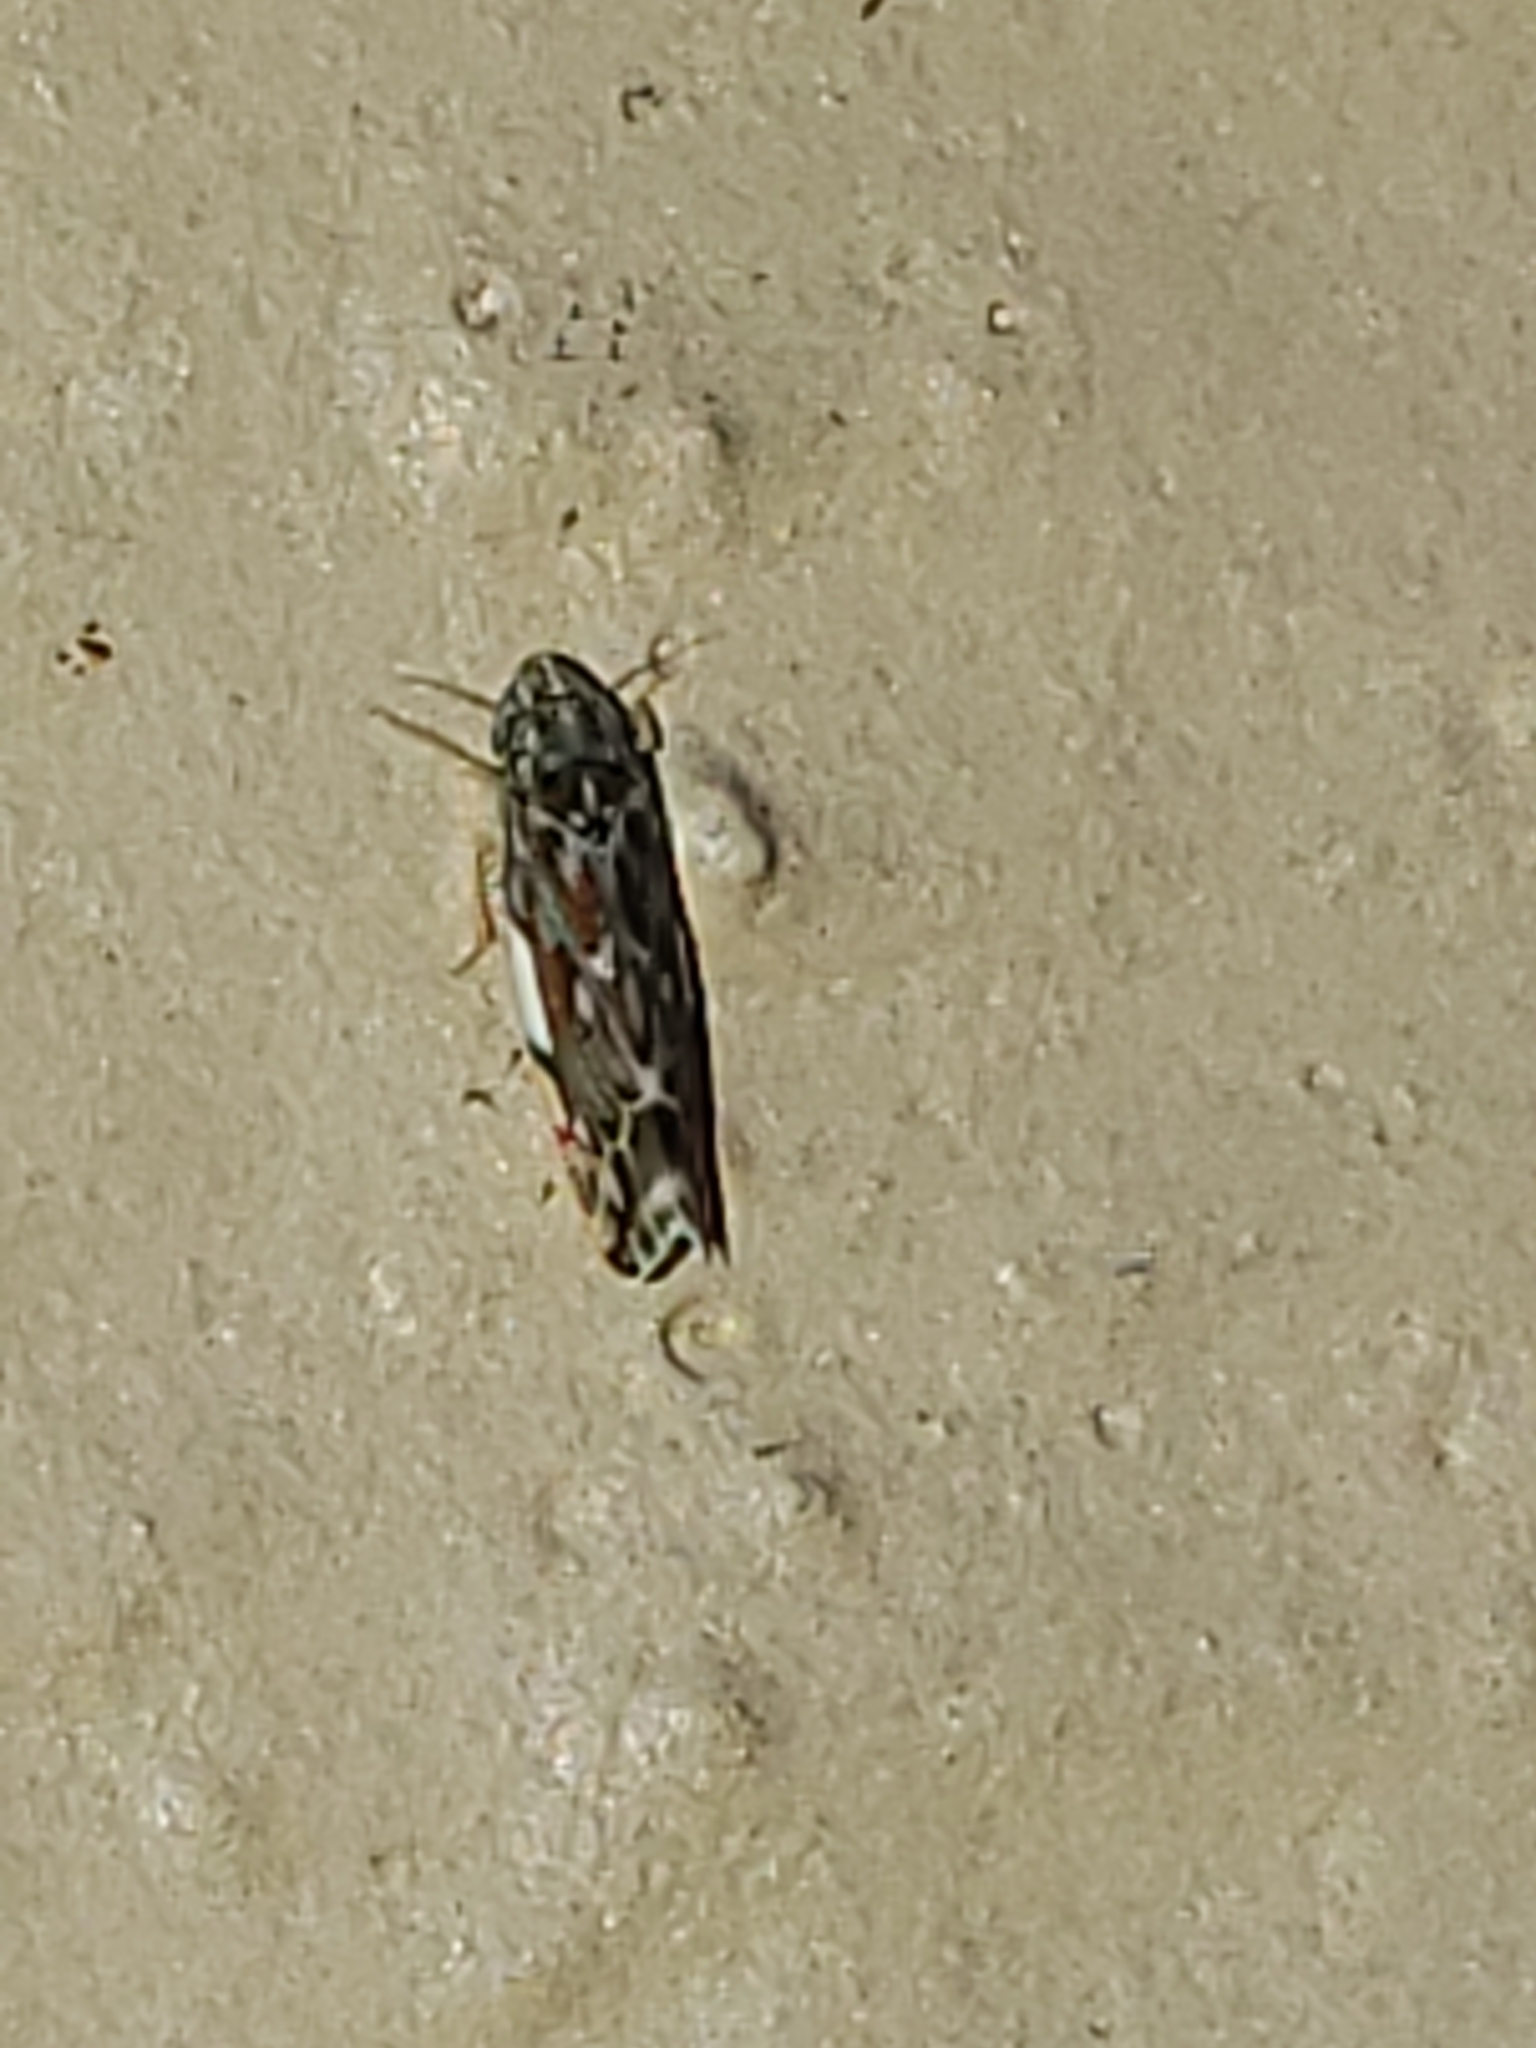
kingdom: Animalia
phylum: Arthropoda
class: Insecta
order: Hemiptera
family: Cicadellidae
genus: Erasmoneura
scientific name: Erasmoneura vulnerata
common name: The wounded leafhopper
